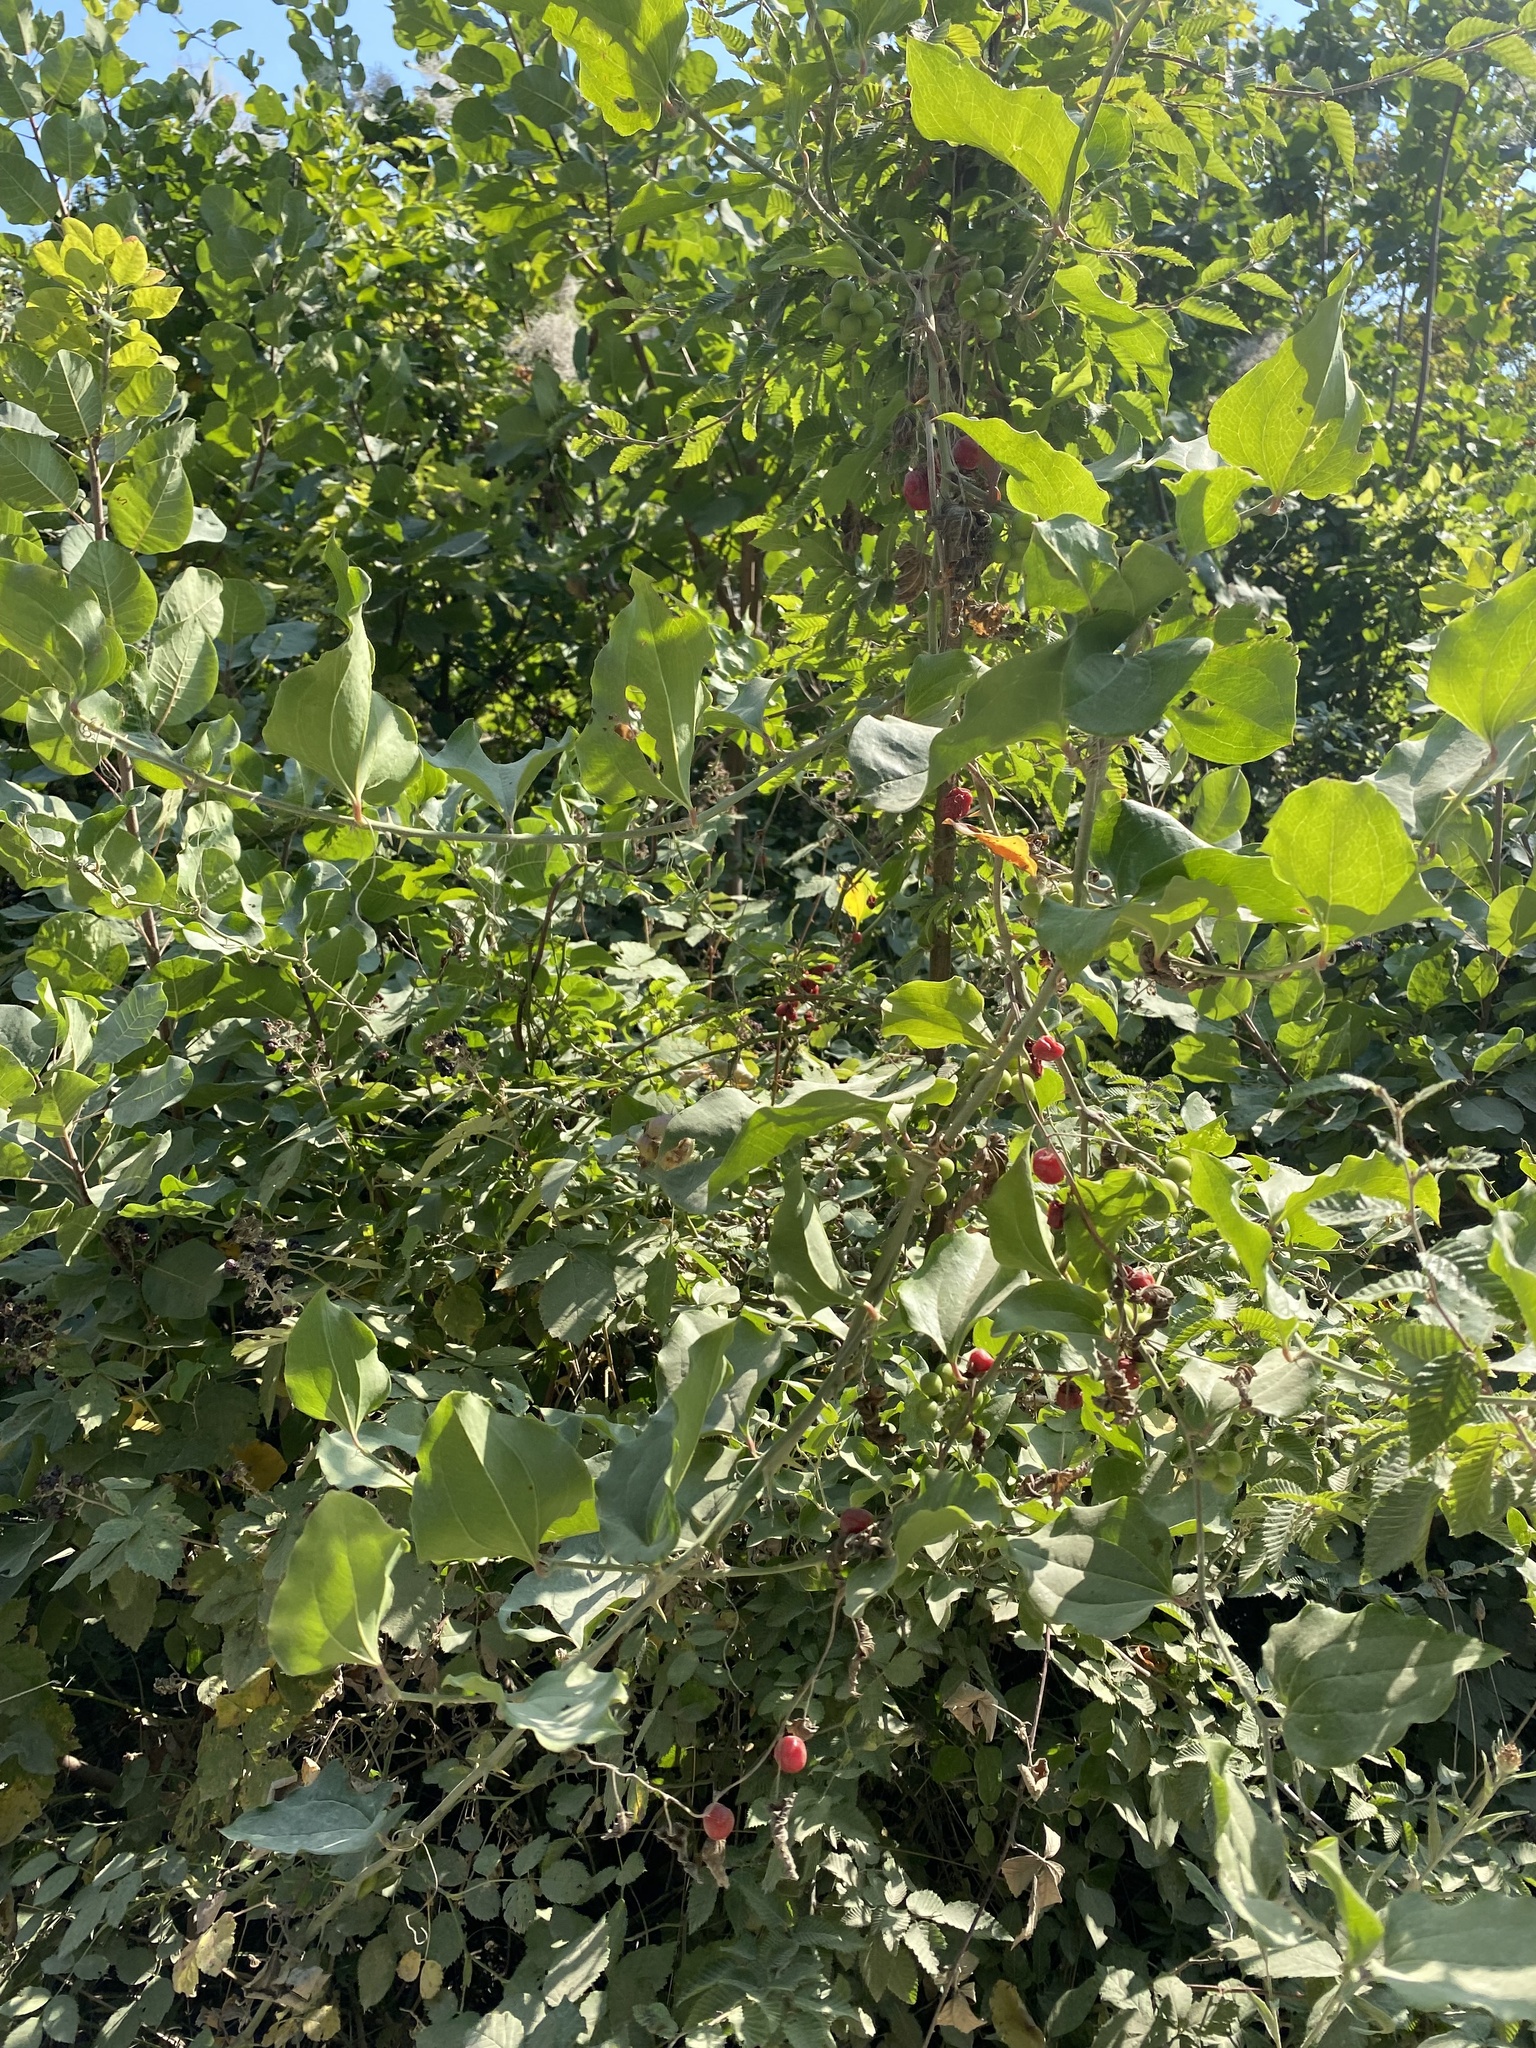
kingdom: Plantae
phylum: Tracheophyta
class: Liliopsida
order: Liliales
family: Smilacaceae
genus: Smilax
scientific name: Smilax excelsa
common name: Larger smilax
